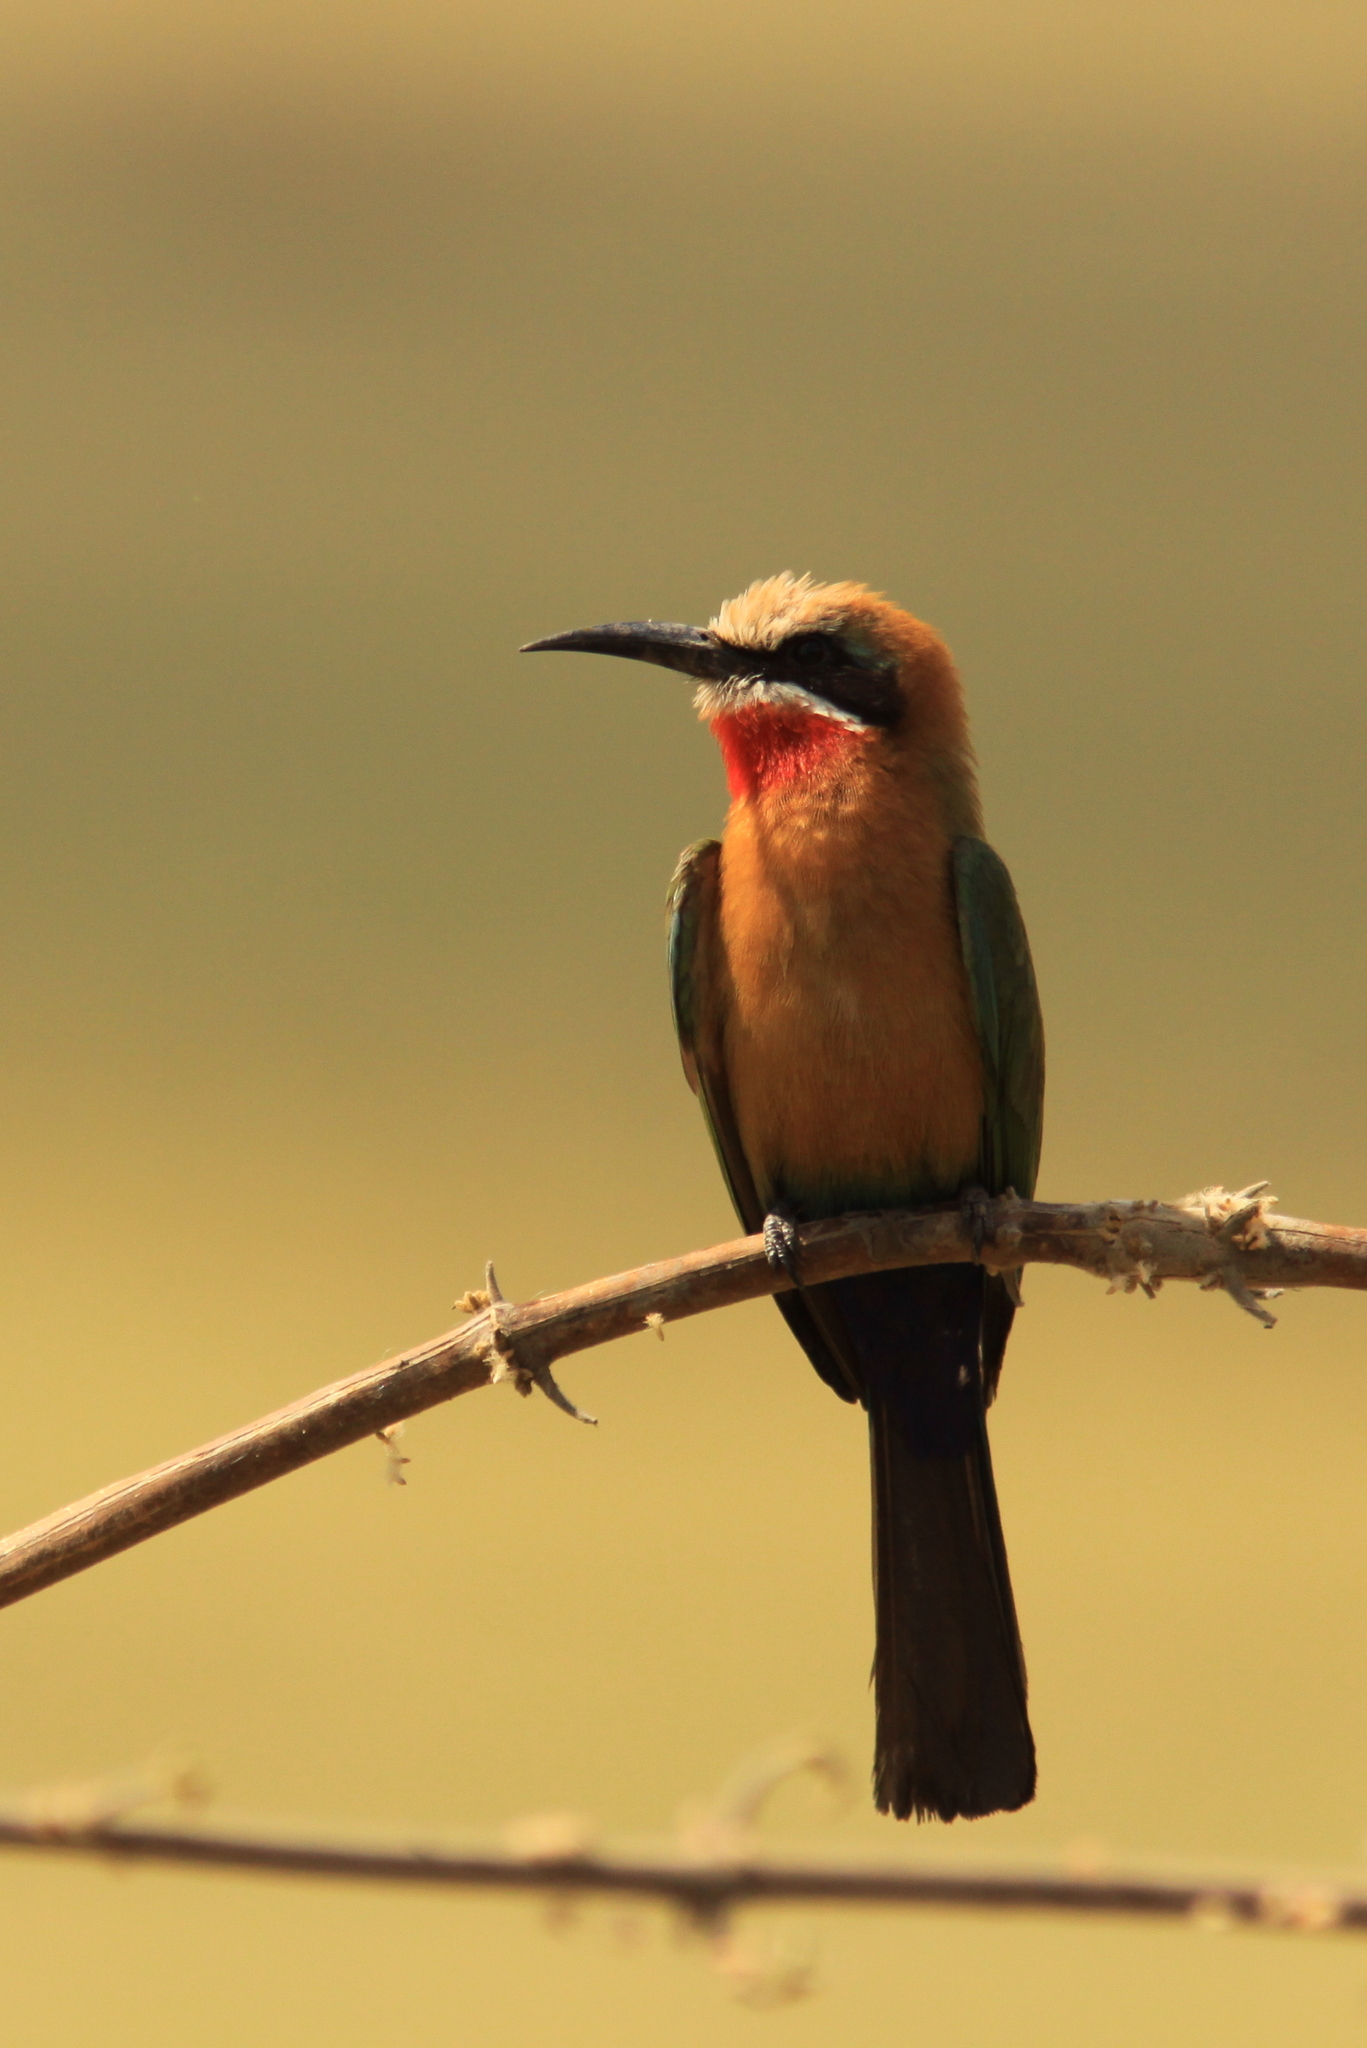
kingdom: Animalia
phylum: Chordata
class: Aves
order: Coraciiformes
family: Meropidae
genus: Merops
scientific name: Merops bullockoides
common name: White-fronted bee-eater
